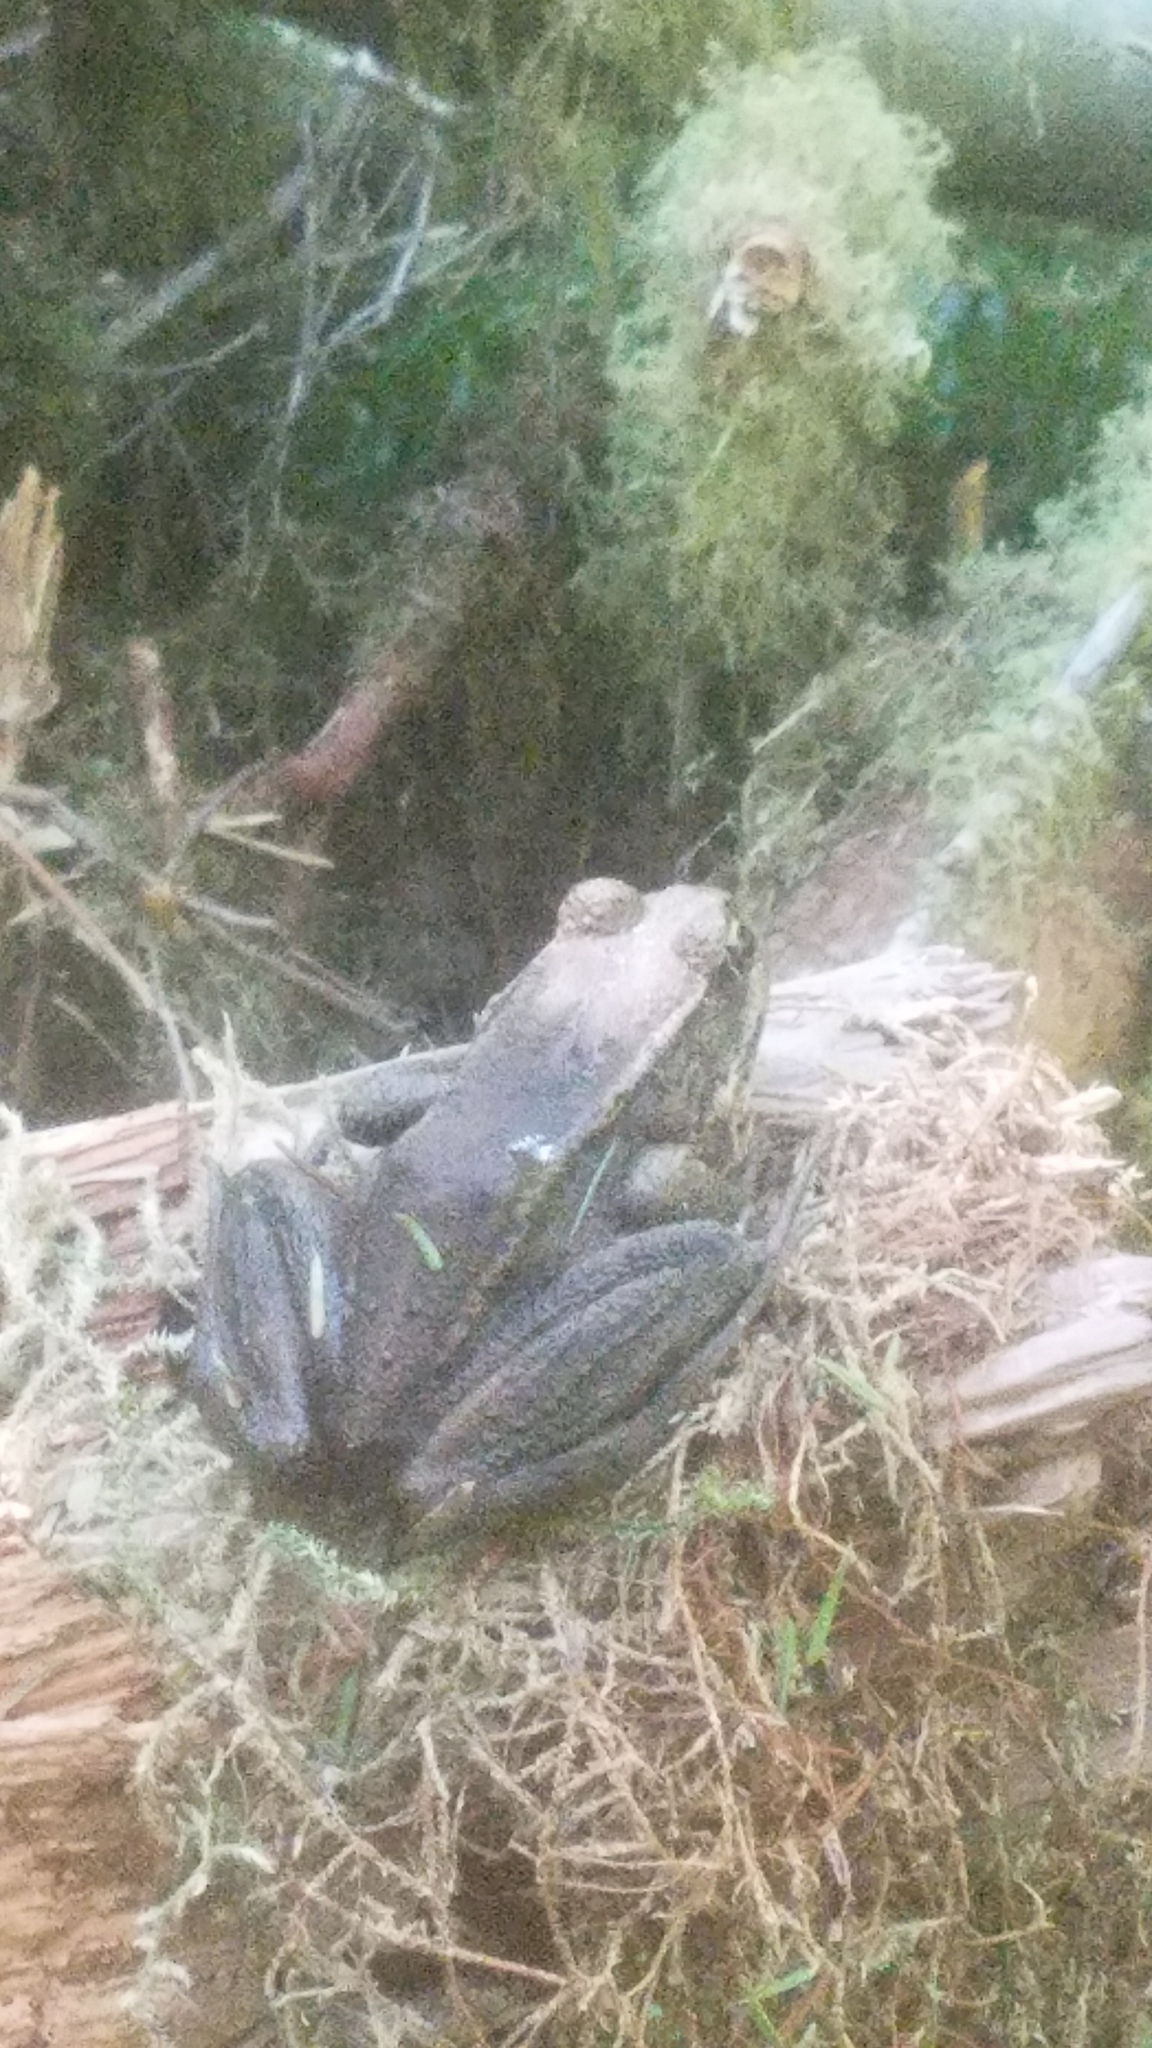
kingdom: Animalia
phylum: Chordata
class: Amphibia
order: Anura
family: Ranidae
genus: Rana
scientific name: Rana aurora
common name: Red-legged frog
